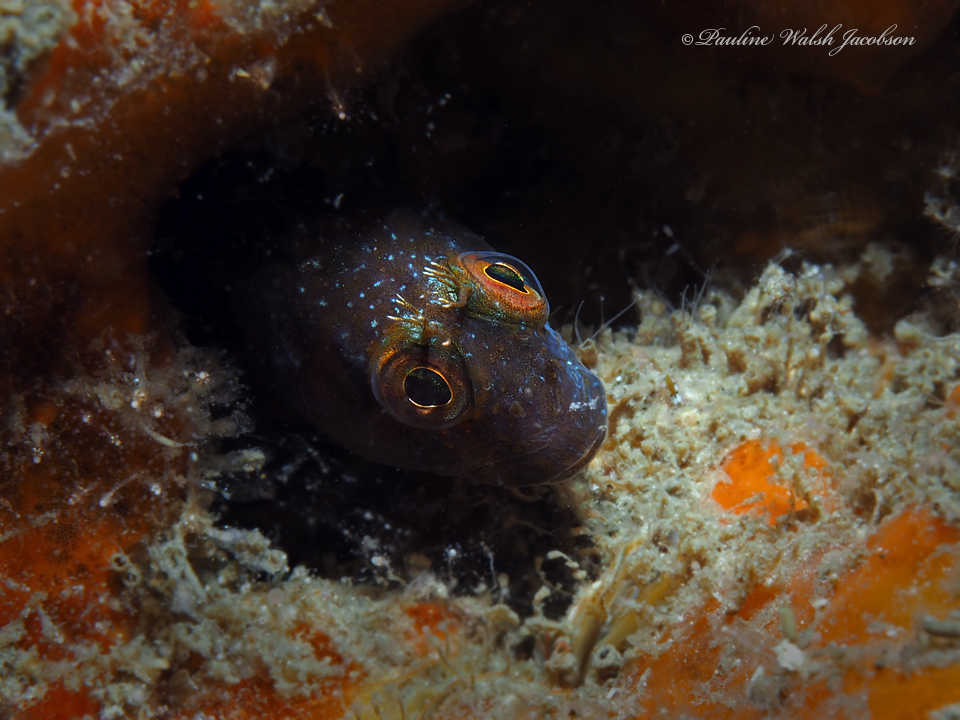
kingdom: Animalia
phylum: Chordata
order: Perciformes
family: Blenniidae
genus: Parablennius
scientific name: Parablennius marmoreus
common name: Seaweed blenny
